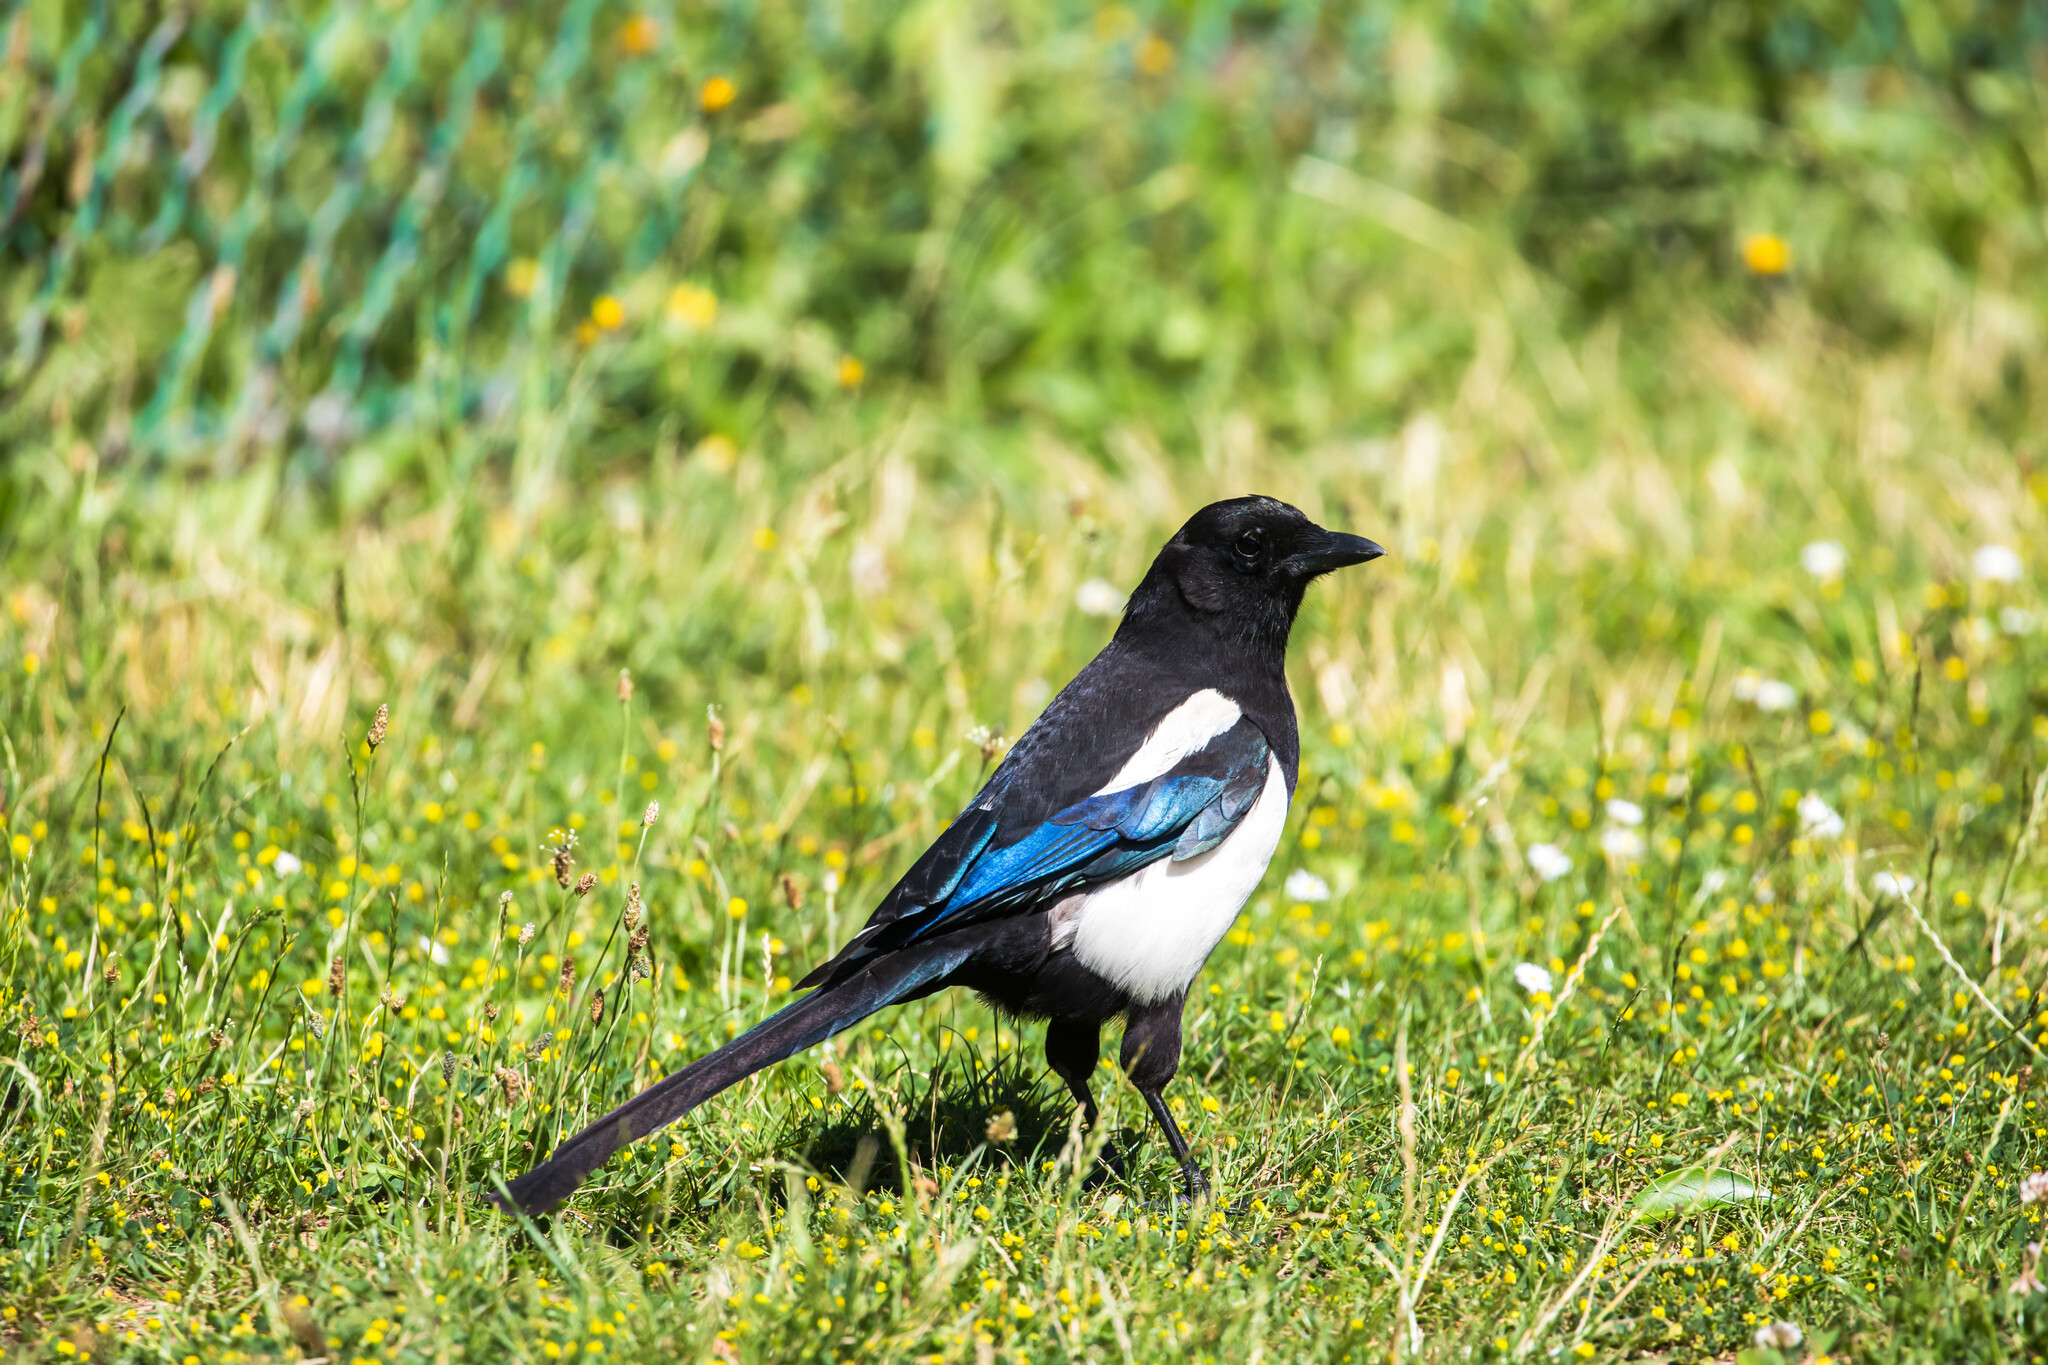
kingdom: Animalia
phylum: Chordata
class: Aves
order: Passeriformes
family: Corvidae
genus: Pica
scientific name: Pica pica
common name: Eurasian magpie
